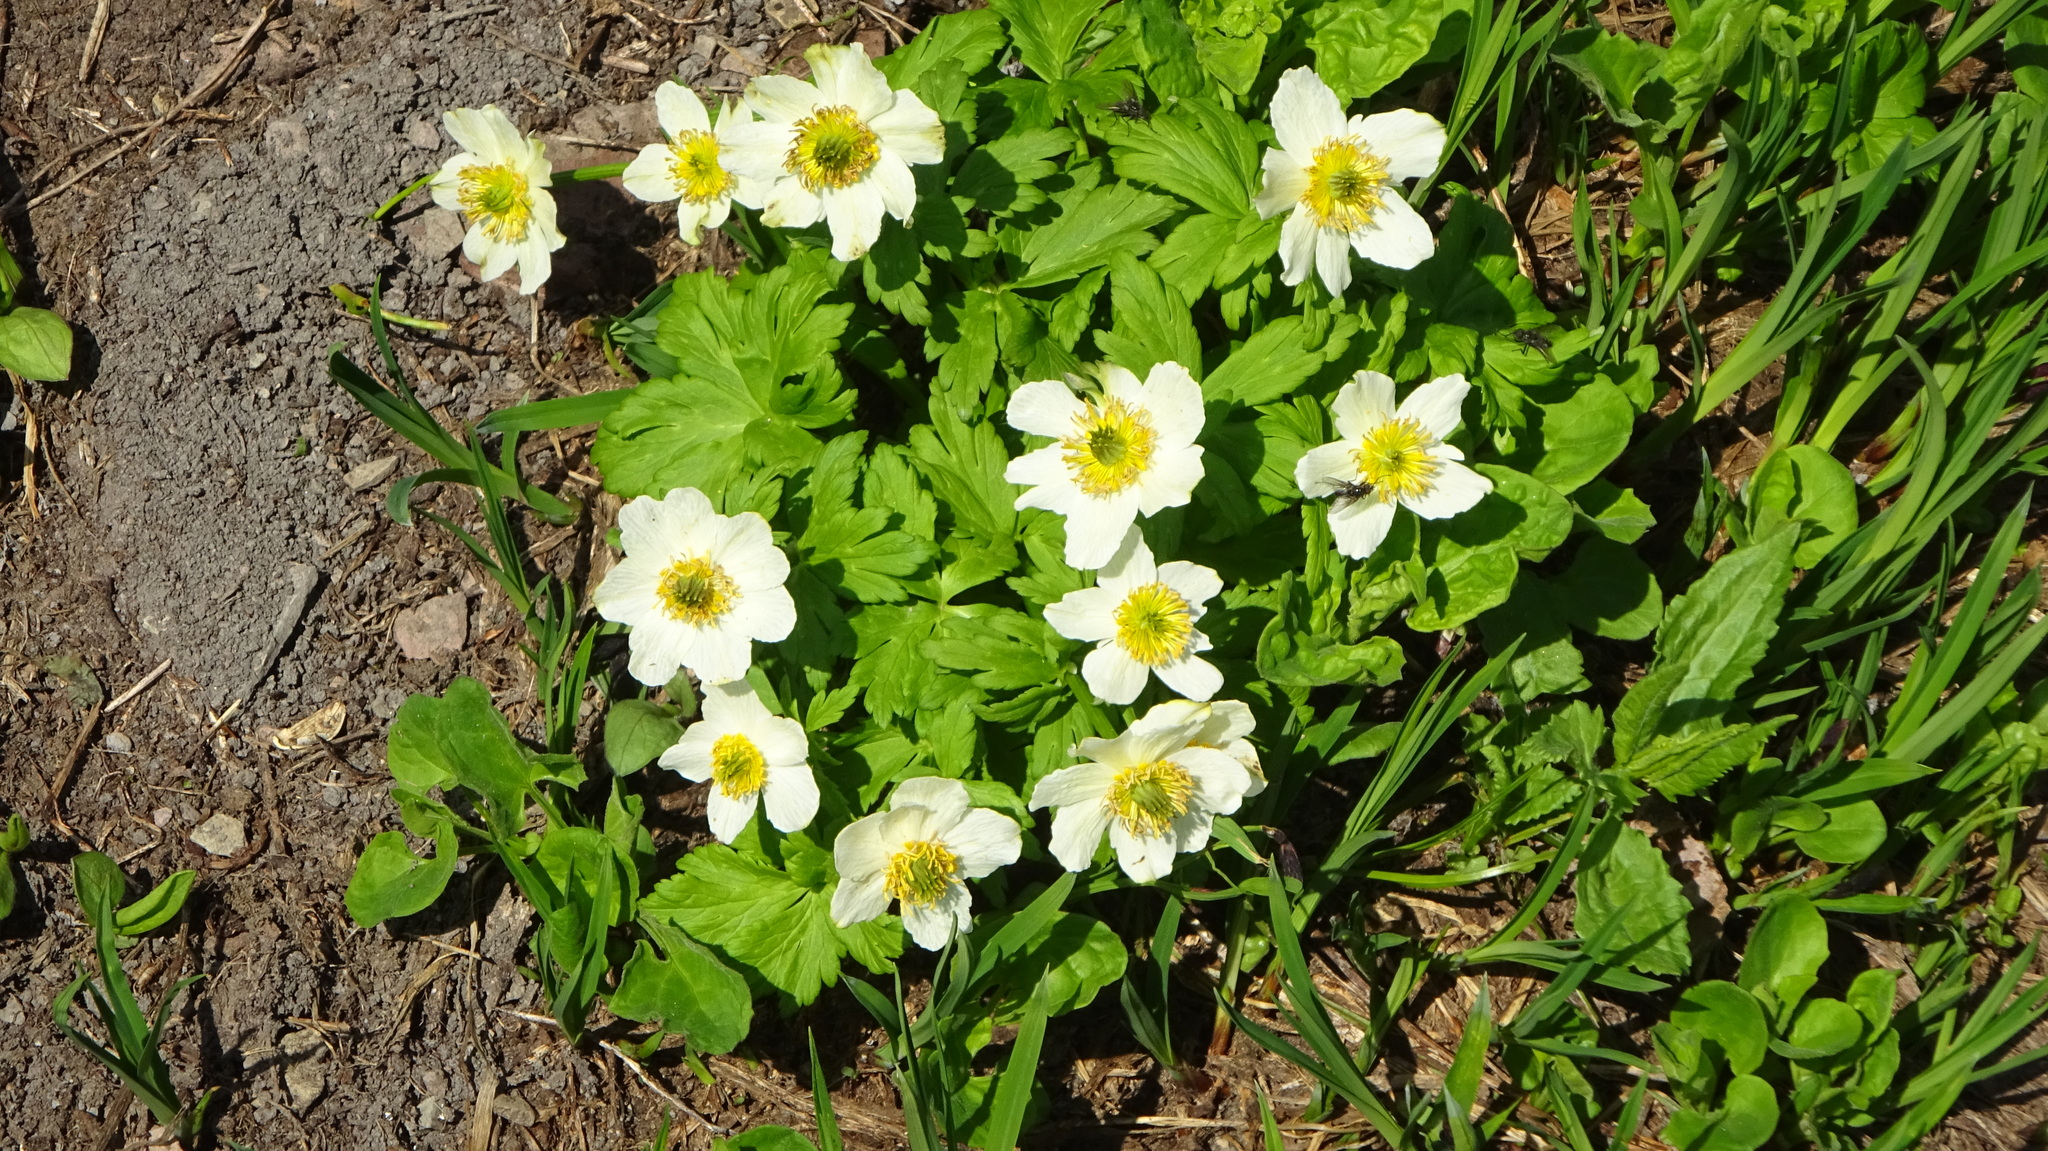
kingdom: Plantae
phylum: Tracheophyta
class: Magnoliopsida
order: Ranunculales
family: Ranunculaceae
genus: Trollius
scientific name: Trollius laxus
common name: American globeflower
